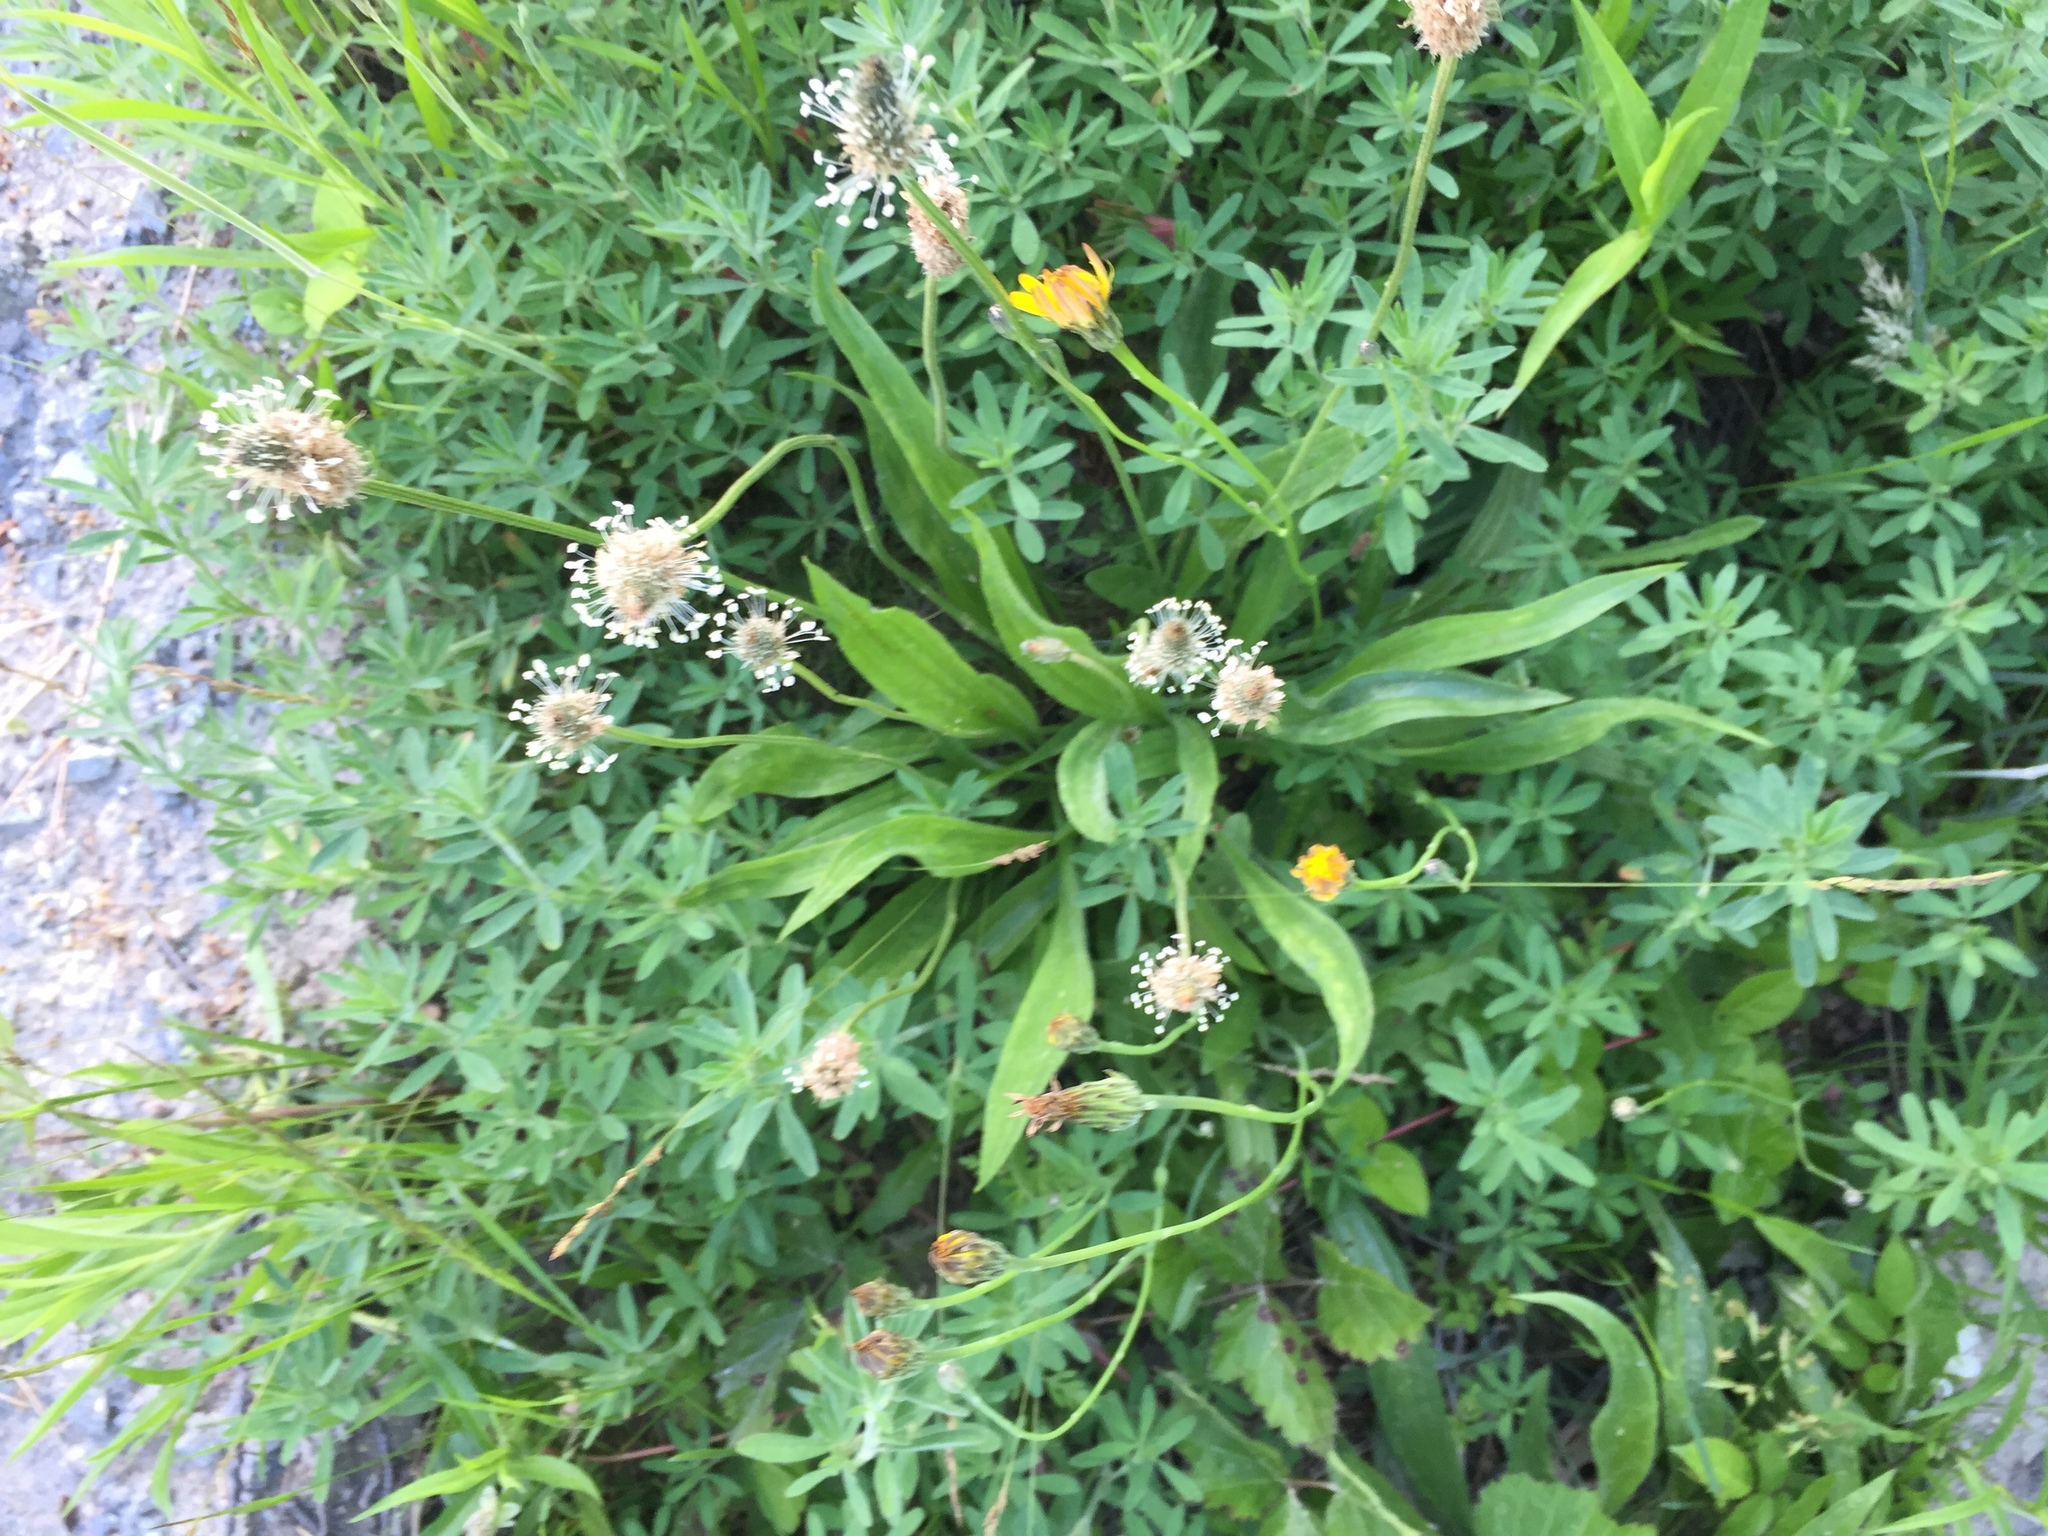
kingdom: Plantae
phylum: Tracheophyta
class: Magnoliopsida
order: Lamiales
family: Plantaginaceae
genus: Plantago
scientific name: Plantago lanceolata
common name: Ribwort plantain
